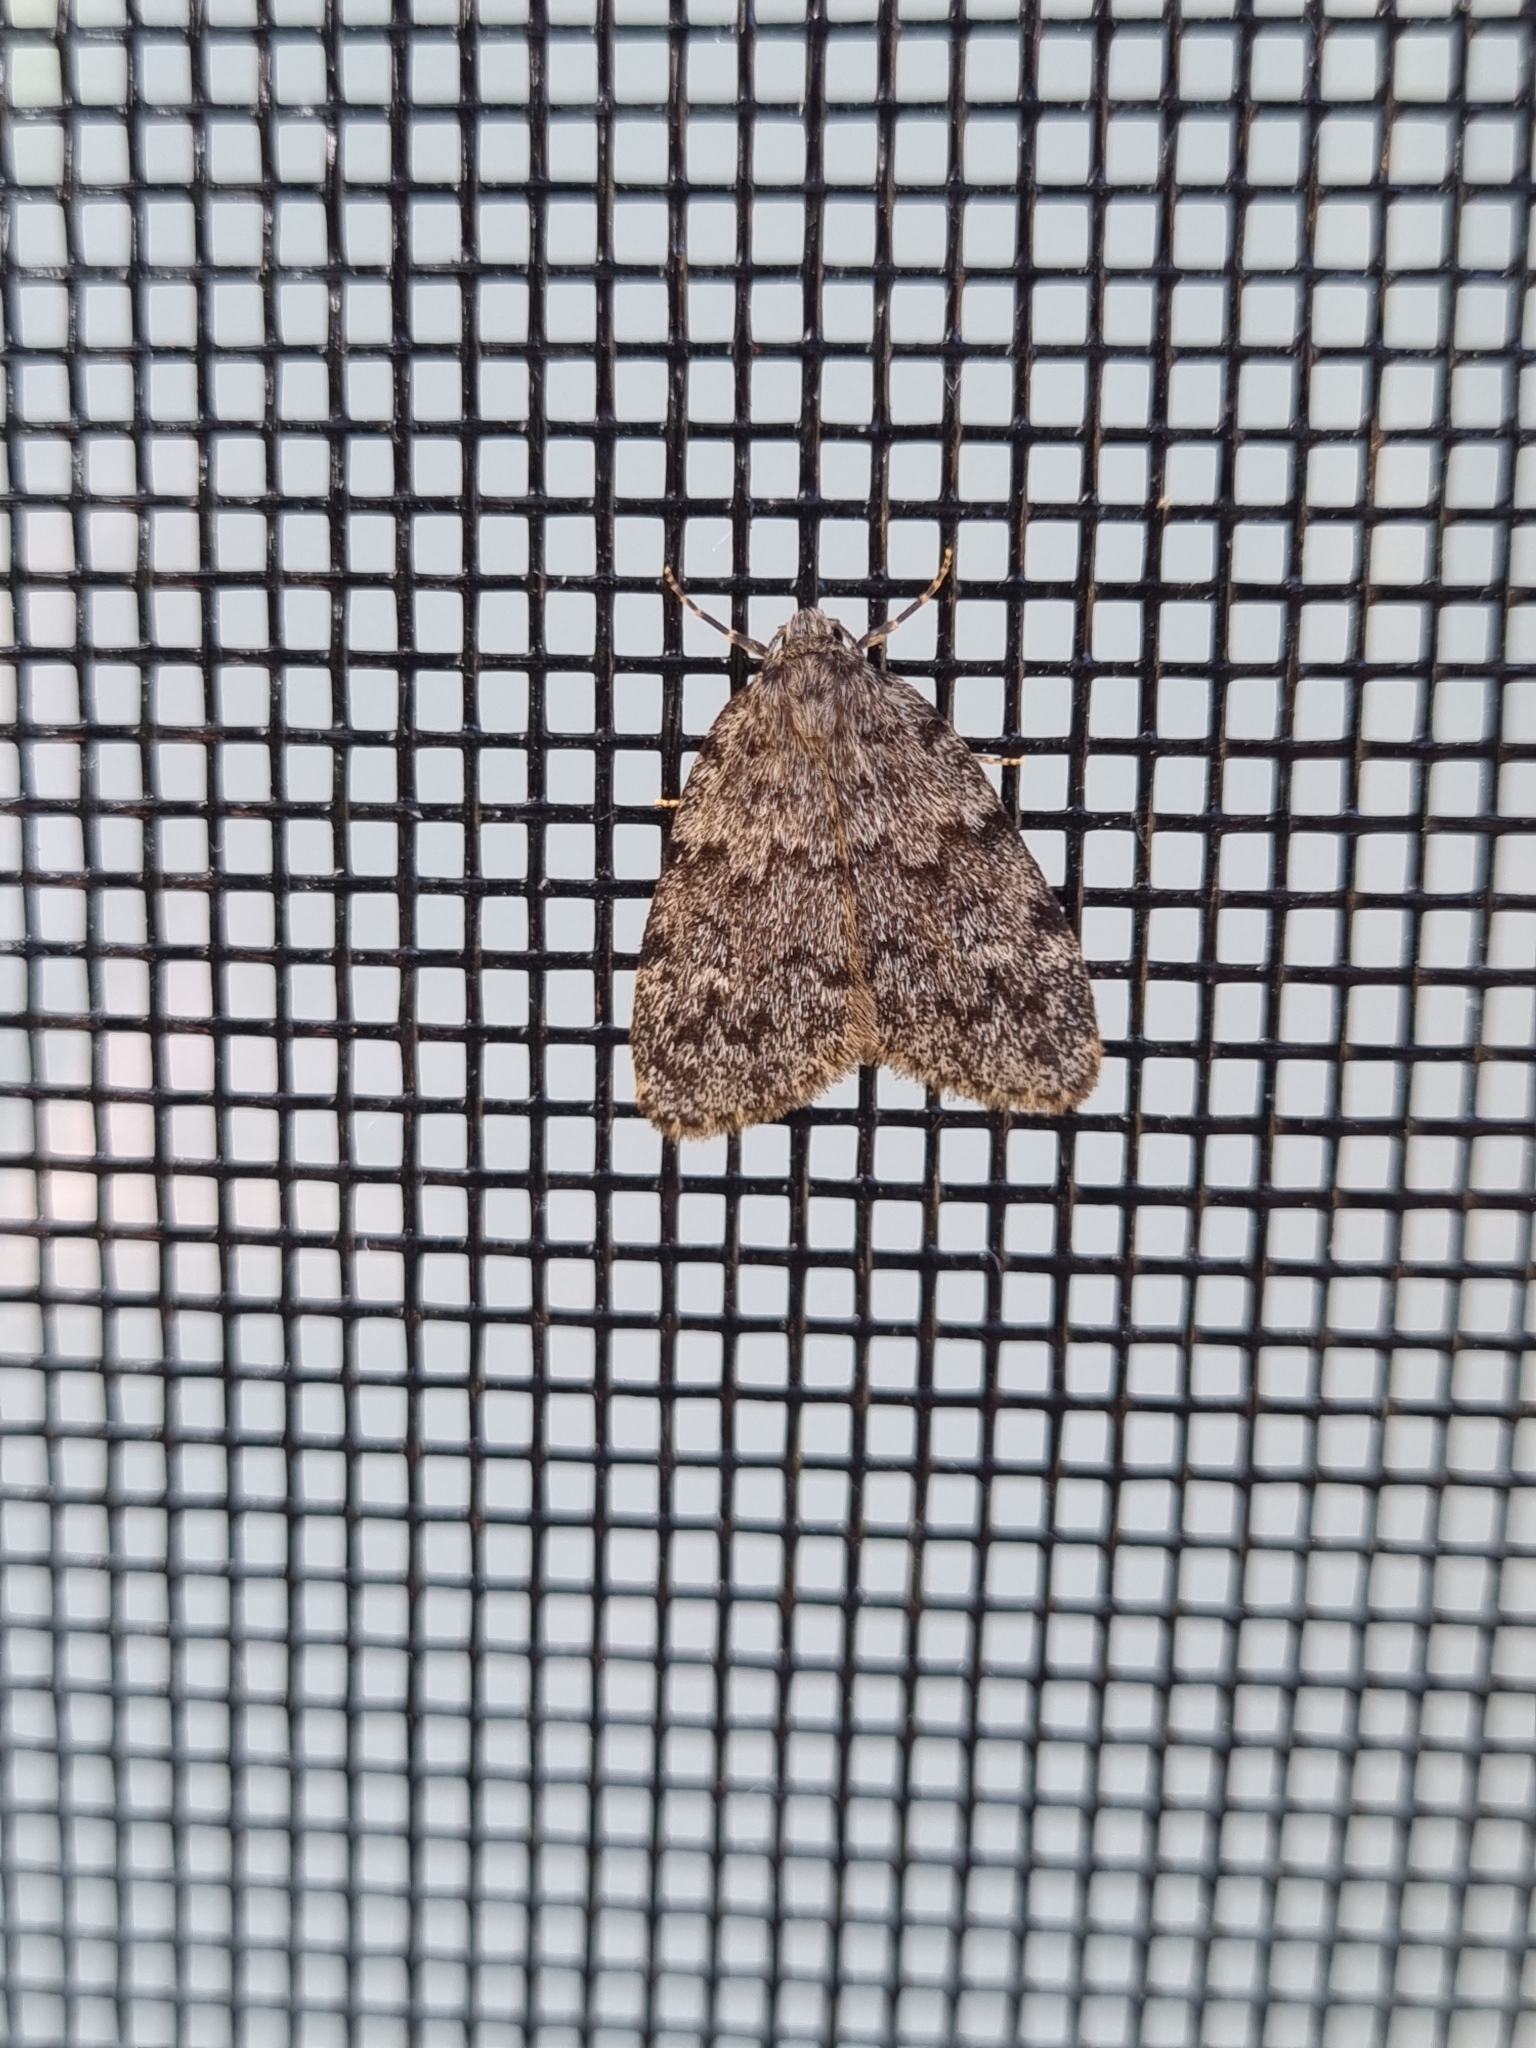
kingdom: Animalia
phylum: Arthropoda
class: Insecta
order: Lepidoptera
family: Erebidae
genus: Halone
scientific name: Halone consolatrix
